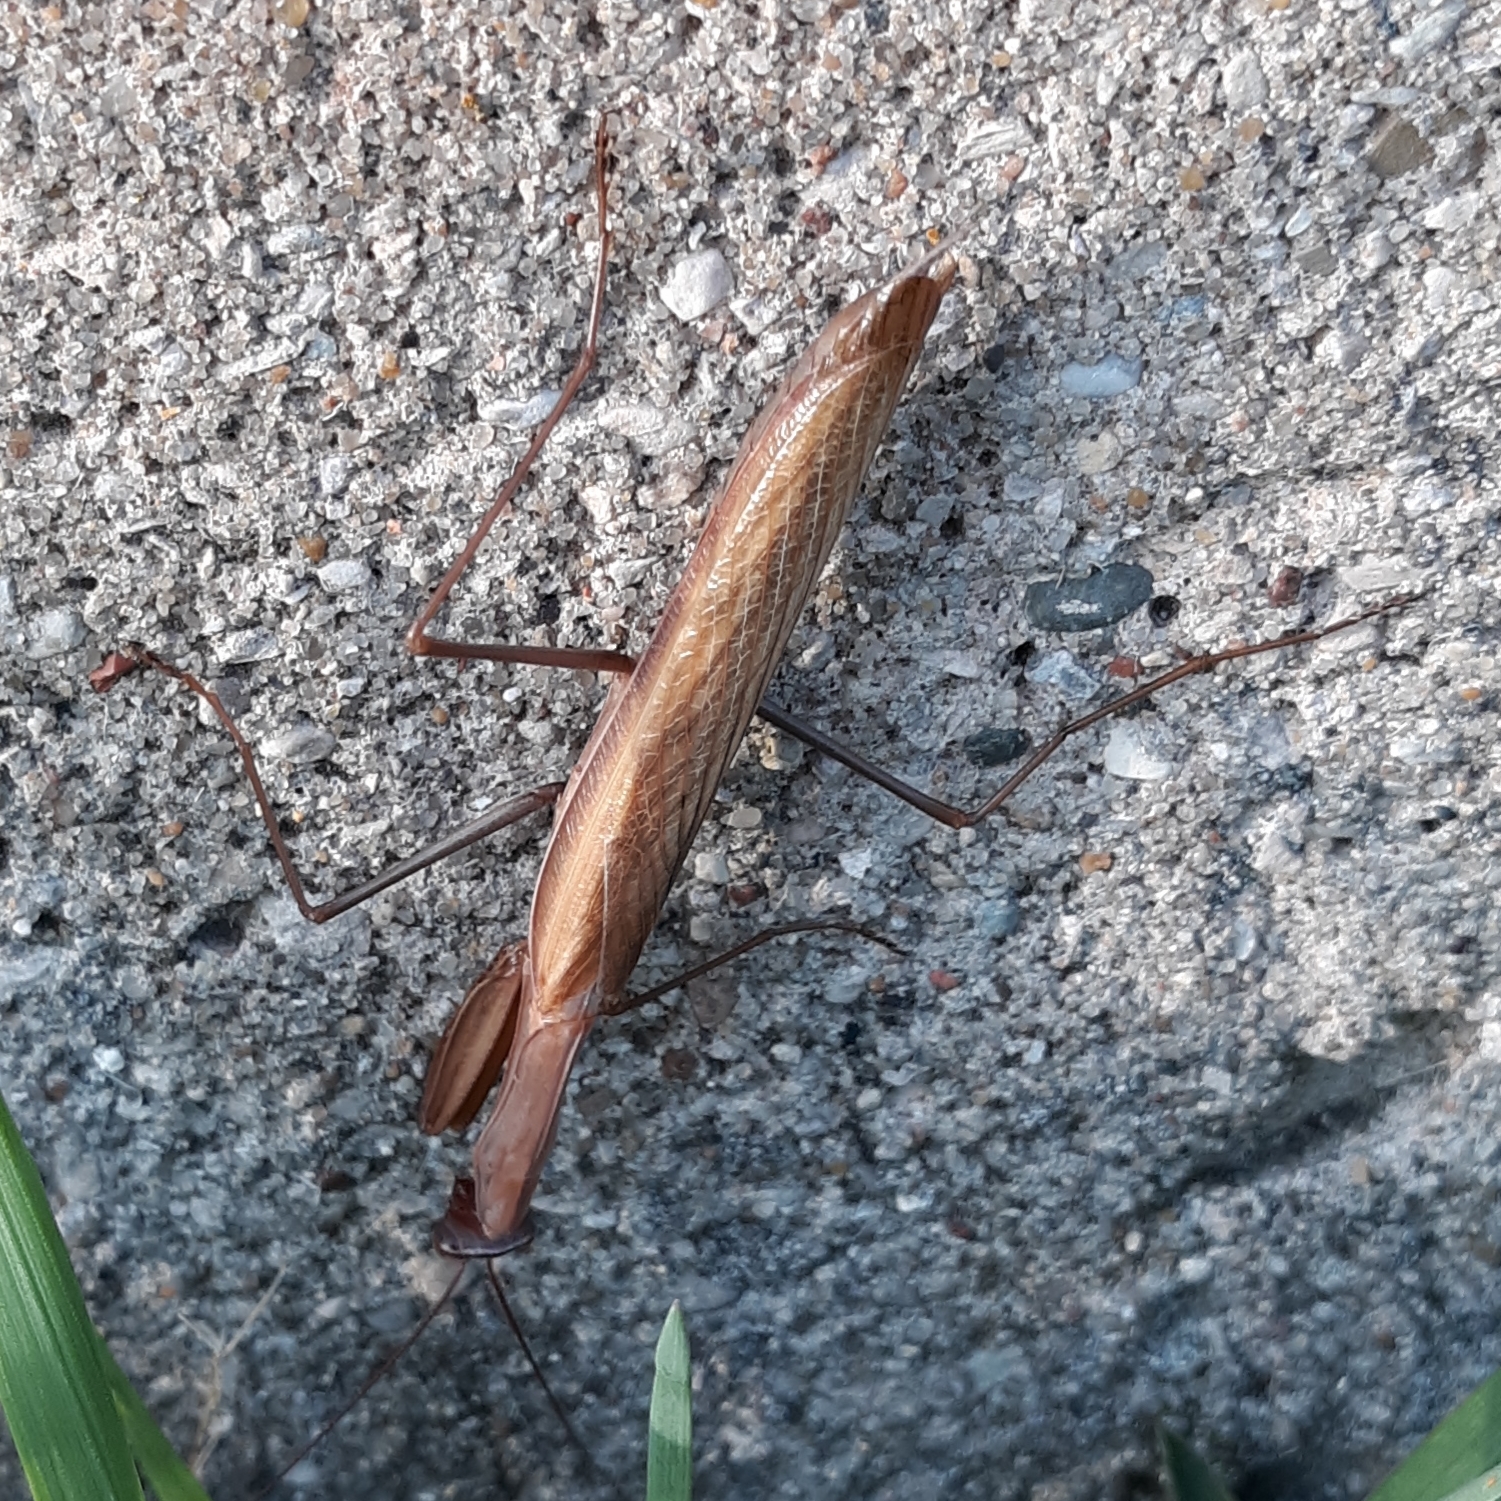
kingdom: Animalia
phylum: Arthropoda
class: Insecta
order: Mantodea
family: Mantidae
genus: Mantis
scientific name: Mantis religiosa
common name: Praying mantis
